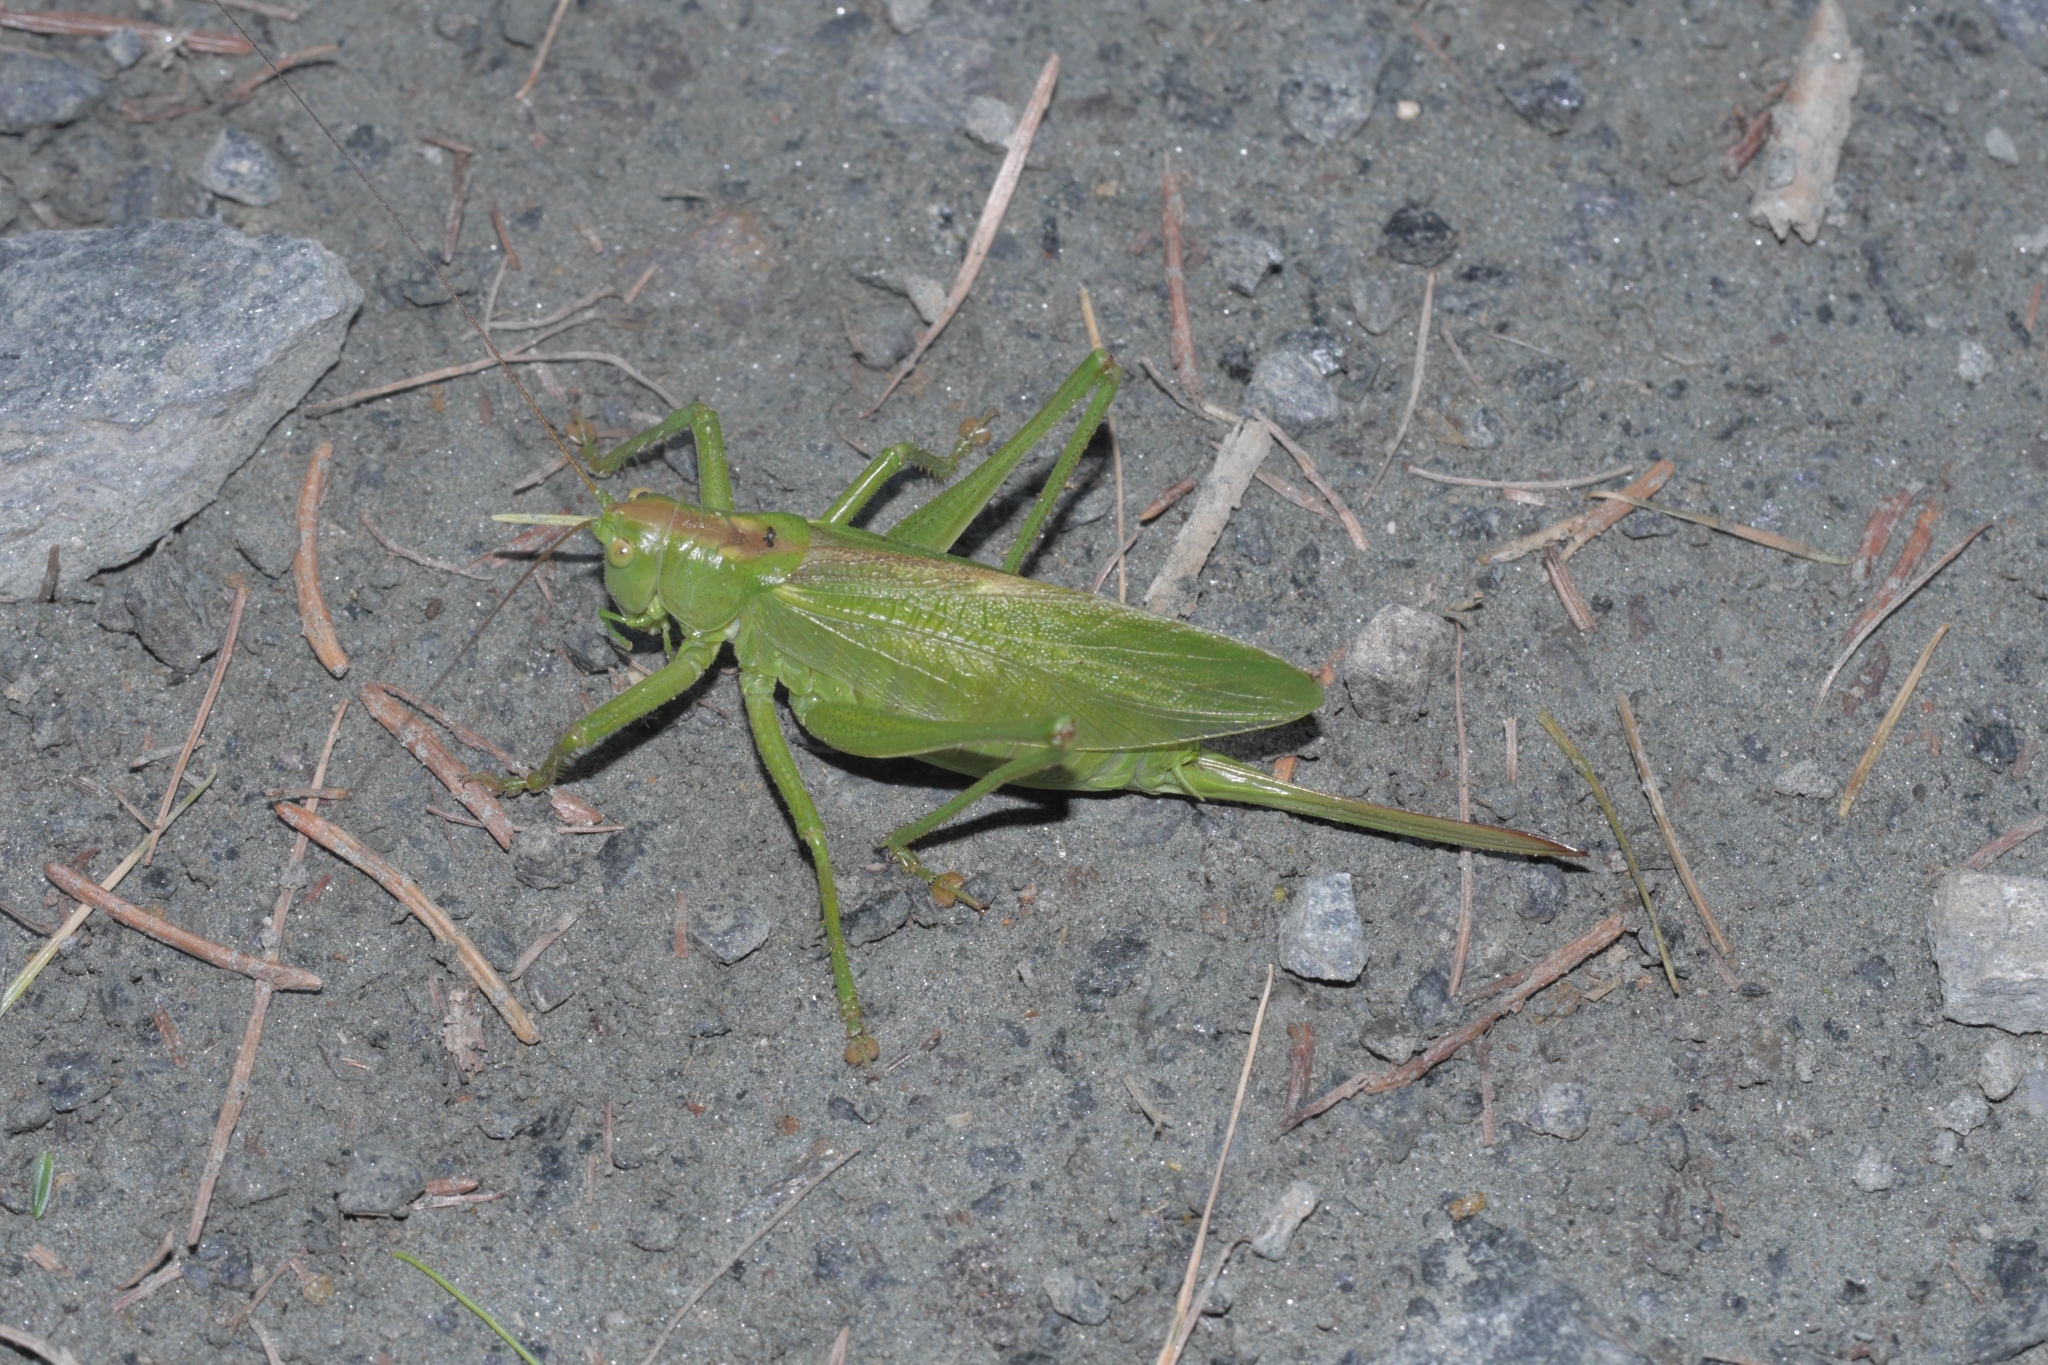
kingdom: Animalia
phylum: Arthropoda
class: Insecta
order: Orthoptera
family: Tettigoniidae
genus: Tettigonia
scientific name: Tettigonia cantans
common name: Upland green bush-cricket
